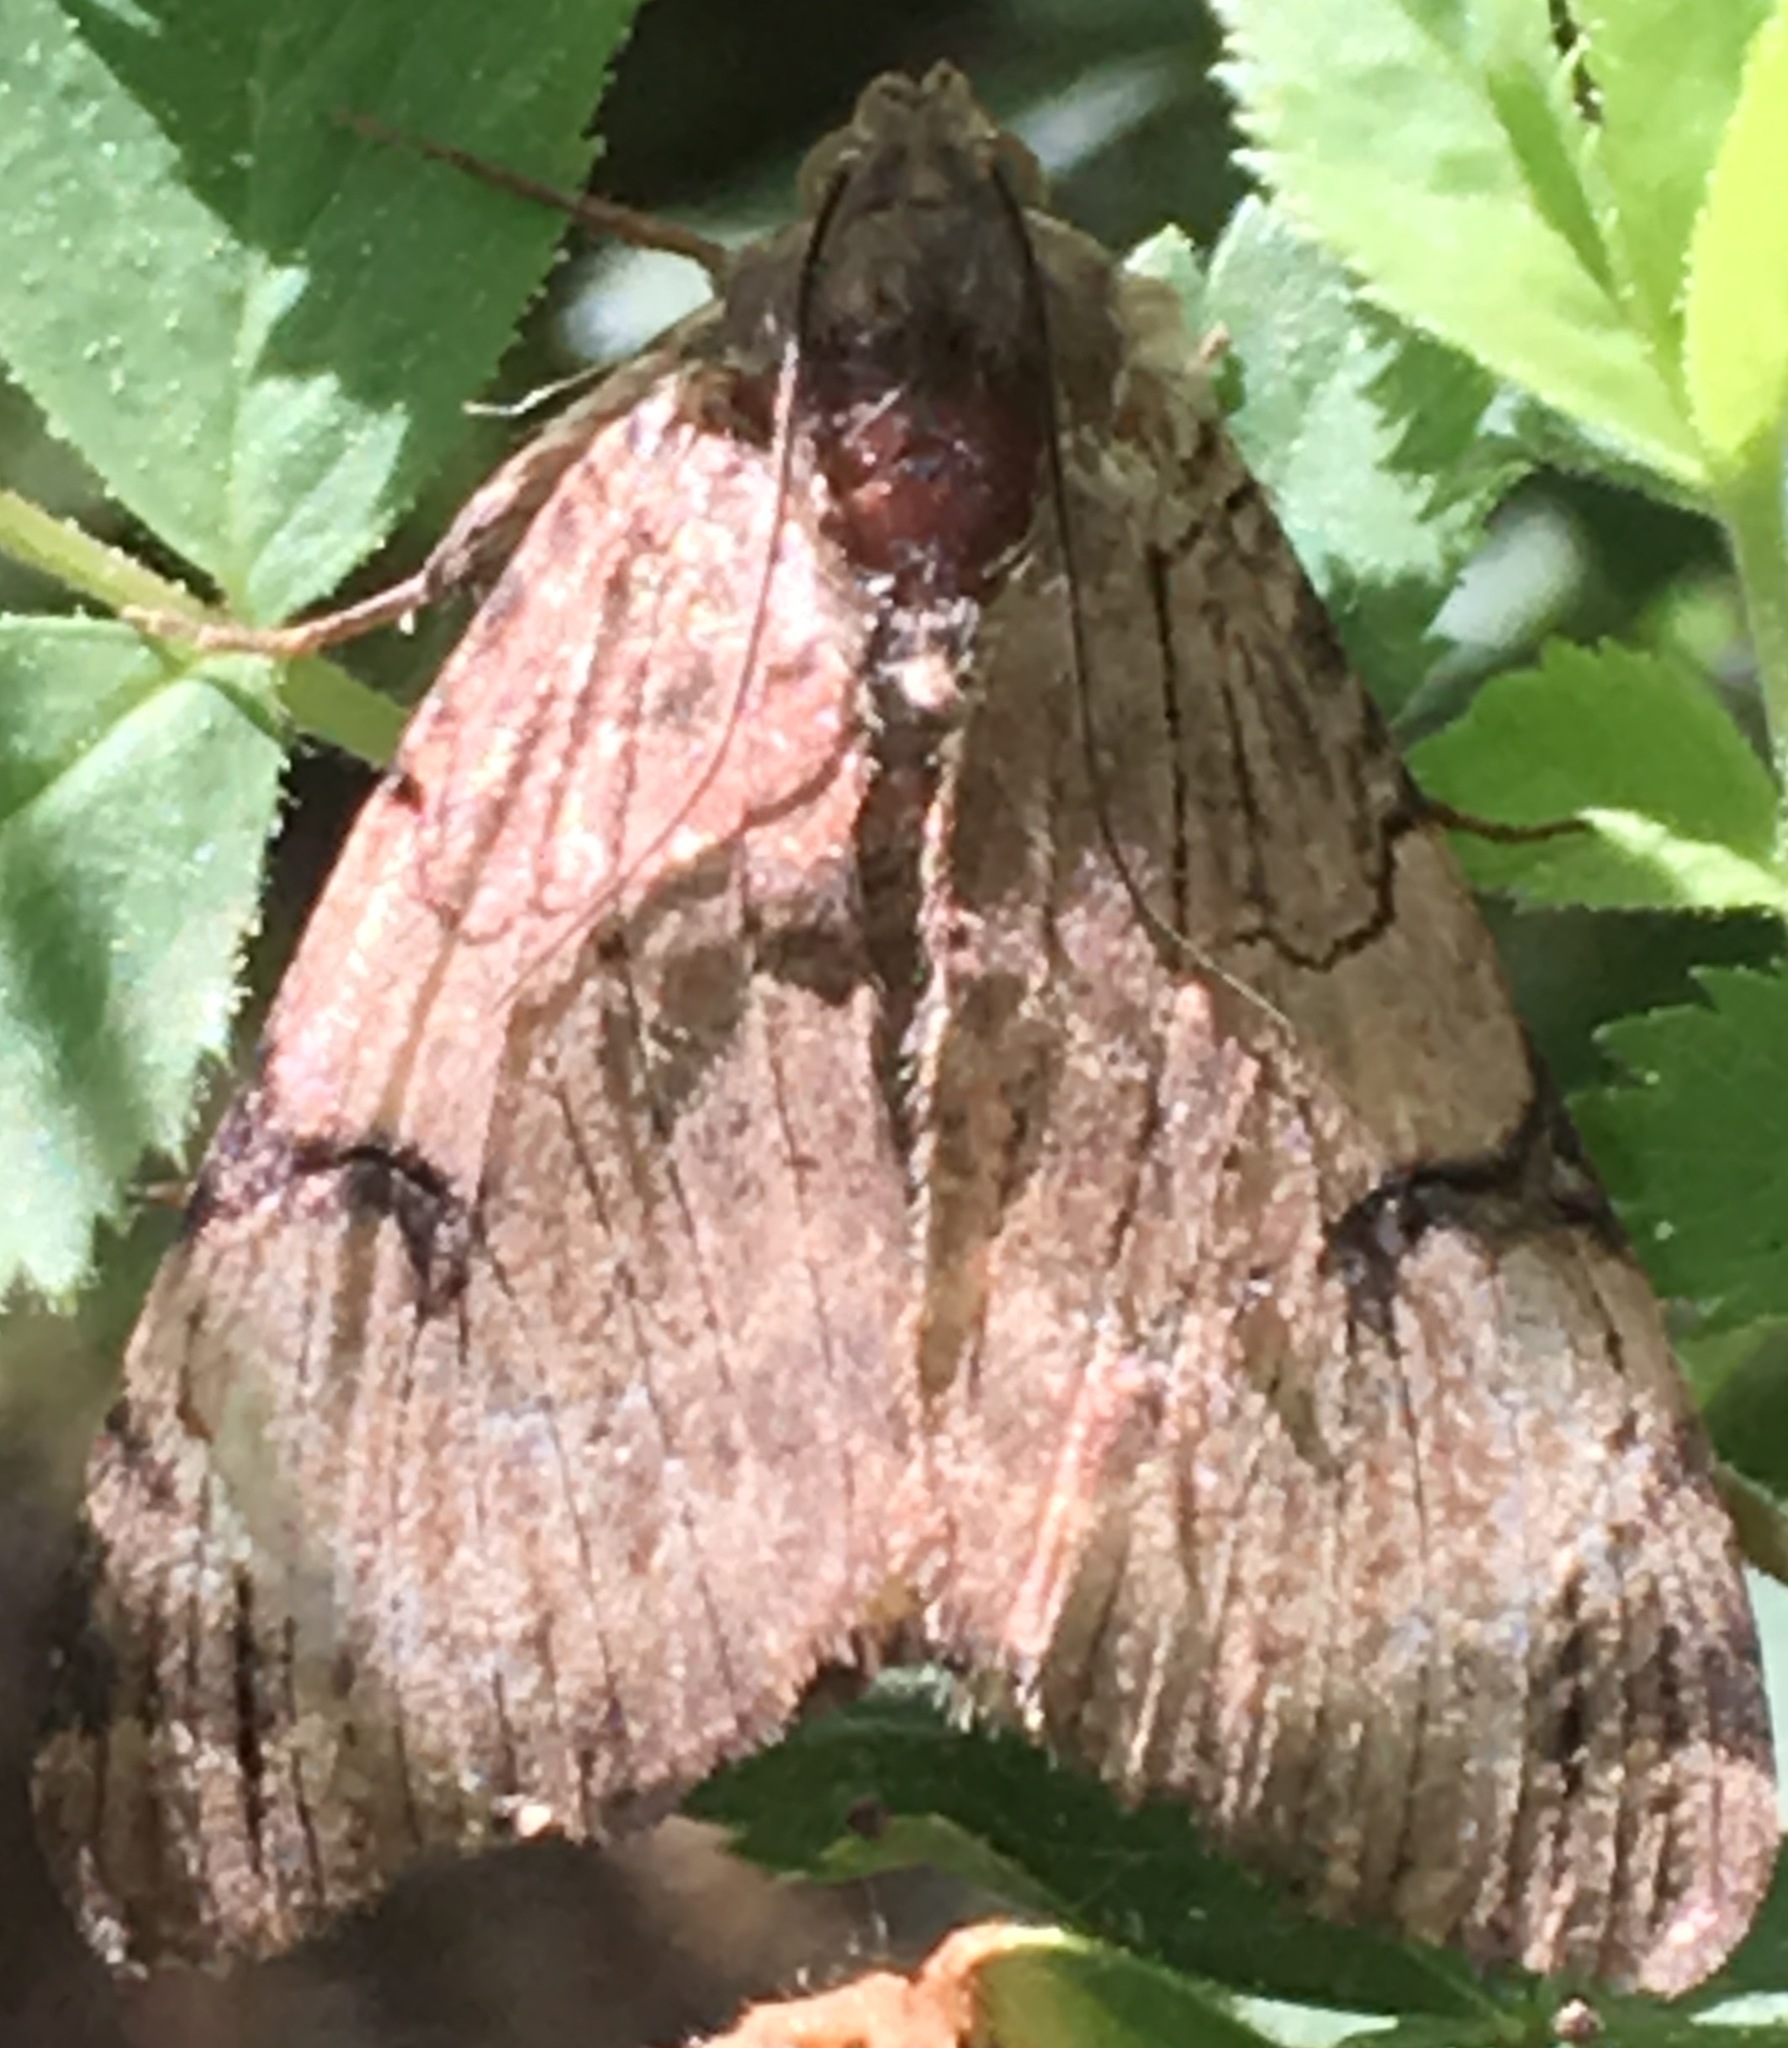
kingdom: Animalia
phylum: Arthropoda
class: Insecta
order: Lepidoptera
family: Erebidae
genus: Drasteria
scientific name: Drasteria ochracea
